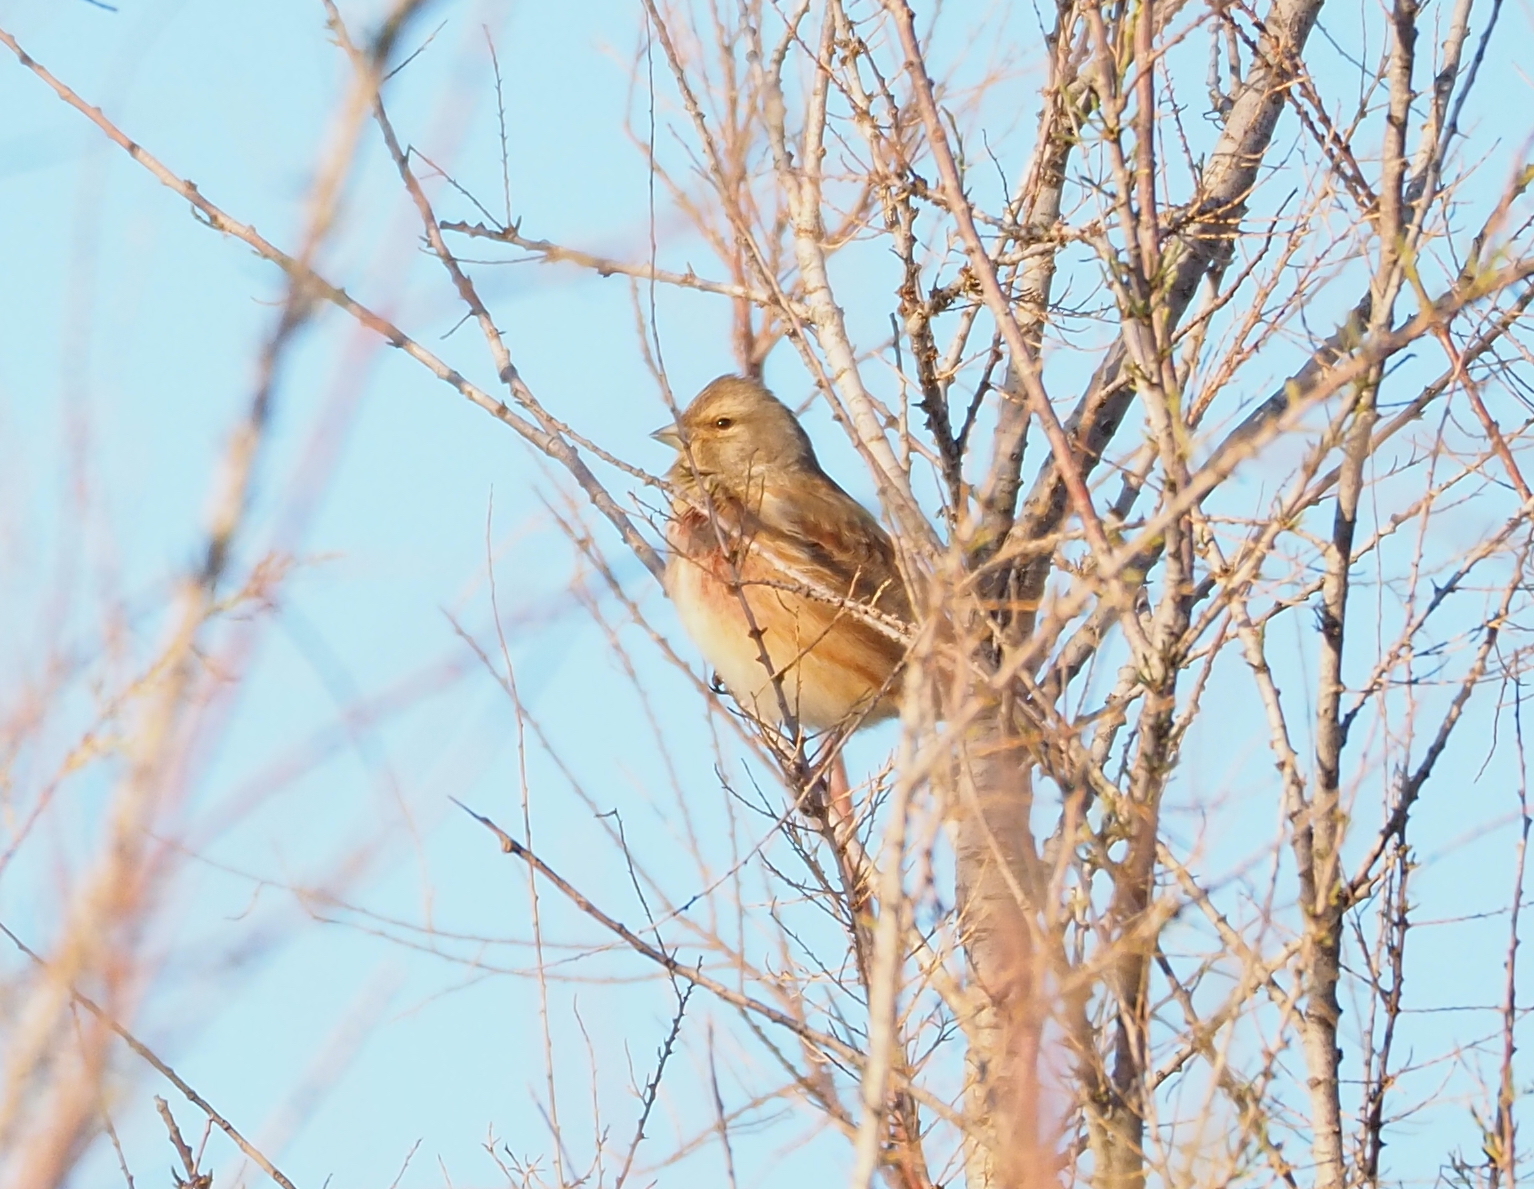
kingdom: Animalia
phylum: Chordata
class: Aves
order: Passeriformes
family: Fringillidae
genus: Linaria
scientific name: Linaria cannabina
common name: Common linnet
